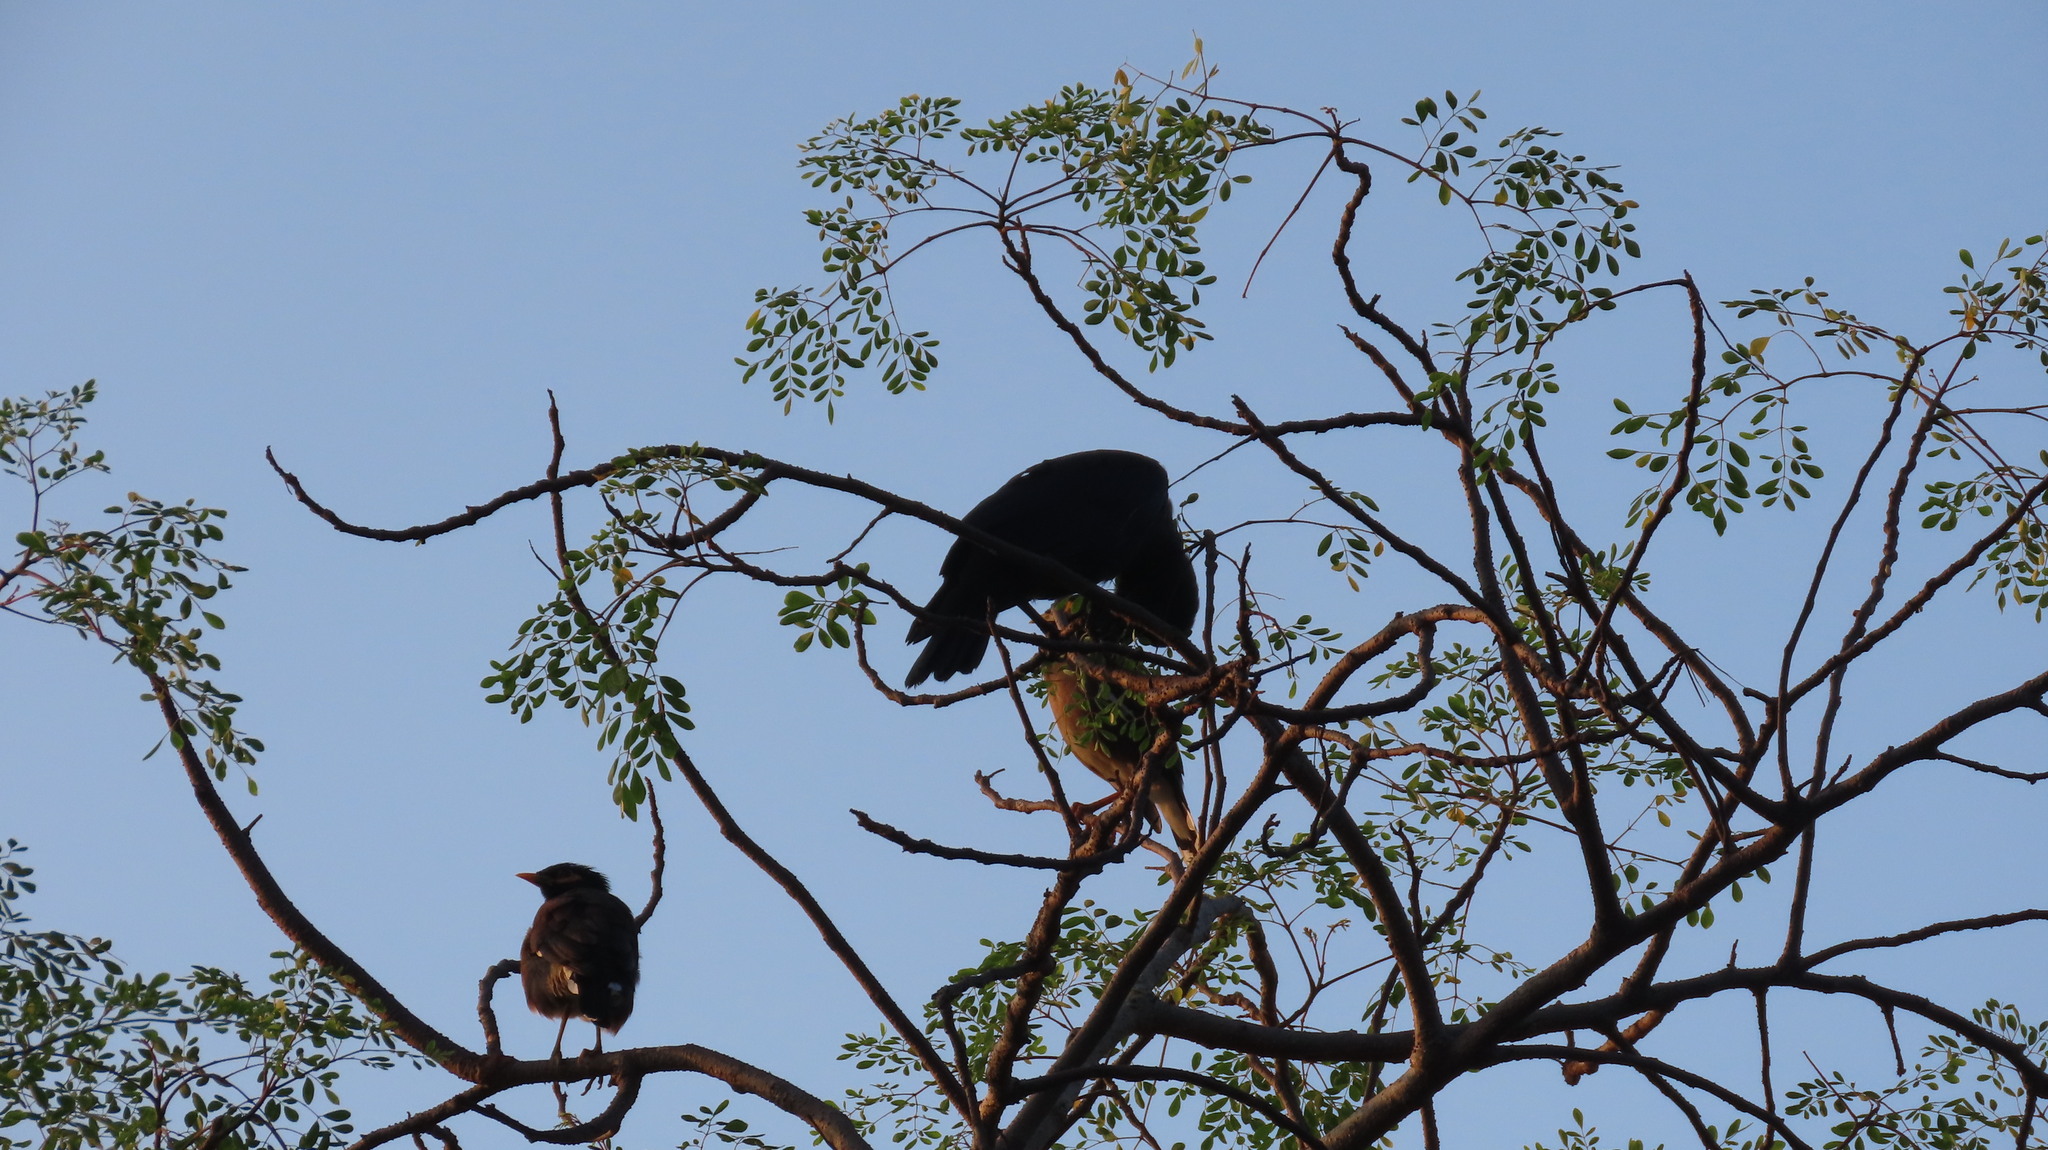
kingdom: Animalia
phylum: Chordata
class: Aves
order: Passeriformes
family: Sturnidae
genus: Acridotheres
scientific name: Acridotheres tristis
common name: Common myna
